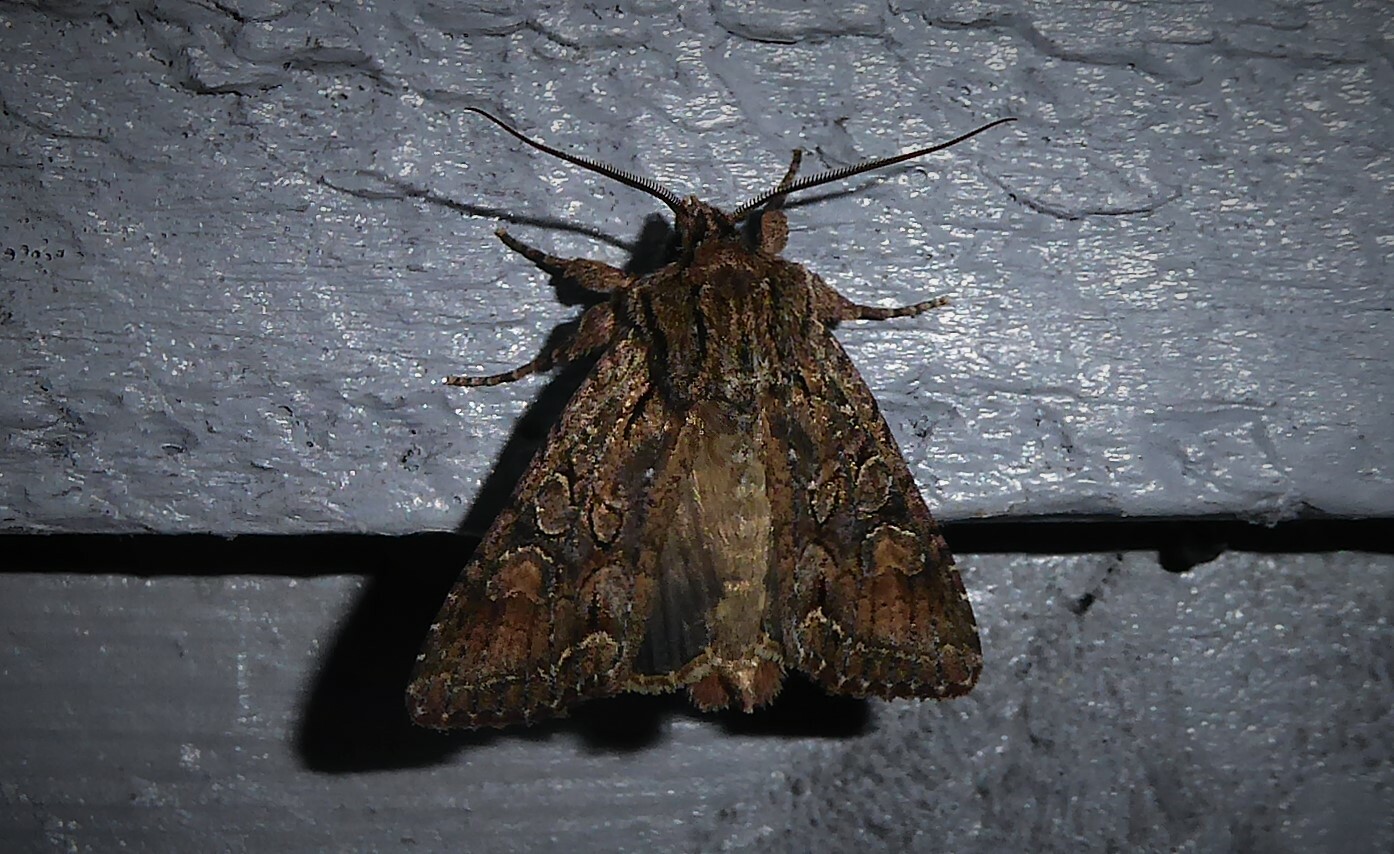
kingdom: Animalia
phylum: Arthropoda
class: Insecta
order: Lepidoptera
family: Noctuidae
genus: Ichneutica
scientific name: Ichneutica mutans
